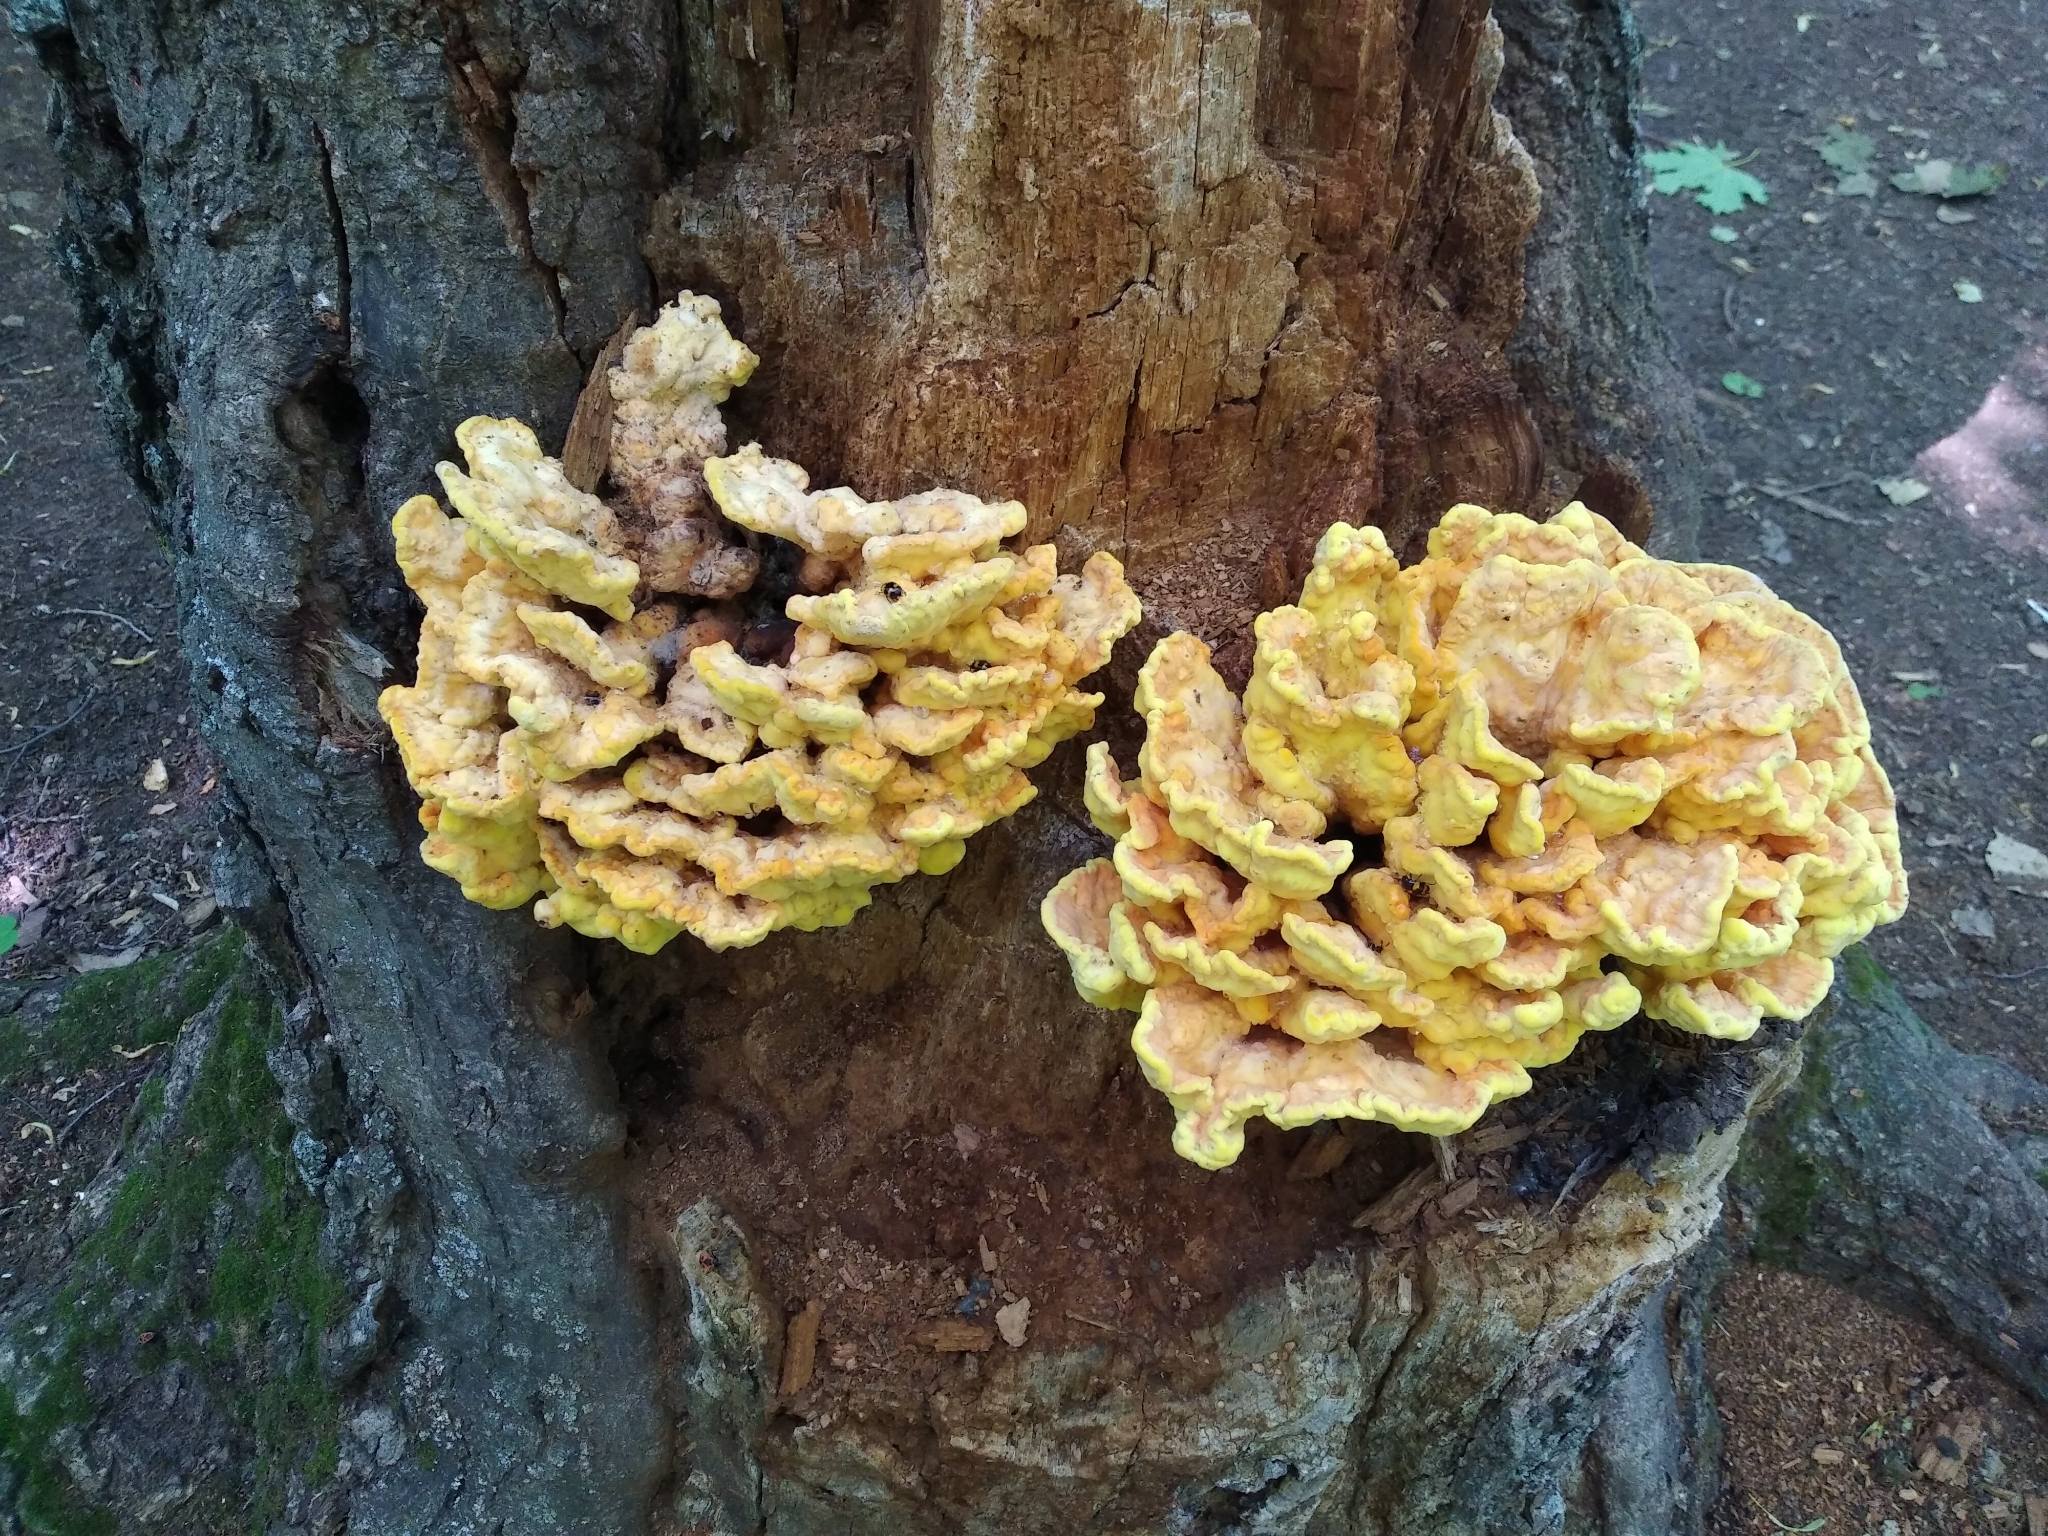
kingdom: Fungi
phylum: Basidiomycota
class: Agaricomycetes
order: Polyporales
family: Laetiporaceae
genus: Laetiporus
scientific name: Laetiporus sulphureus
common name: Chicken of the woods
